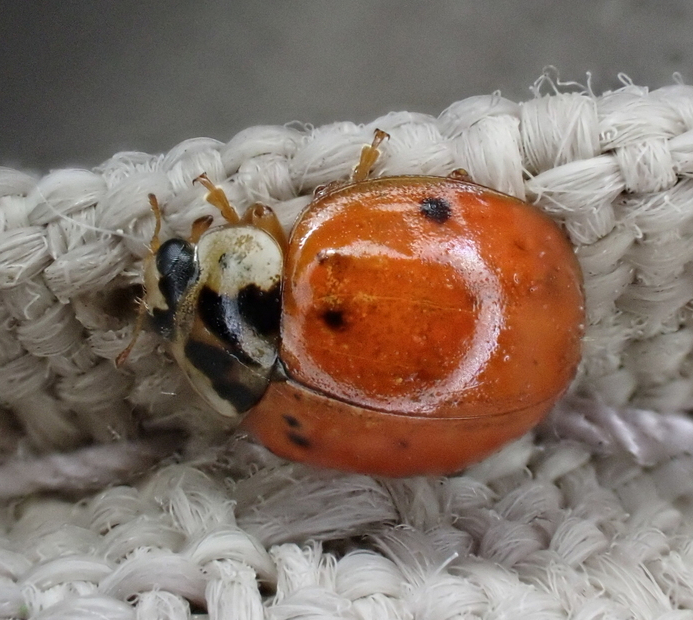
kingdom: Animalia
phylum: Arthropoda
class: Insecta
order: Coleoptera
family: Coccinellidae
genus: Harmonia
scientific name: Harmonia axyridis
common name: Harlequin ladybird
